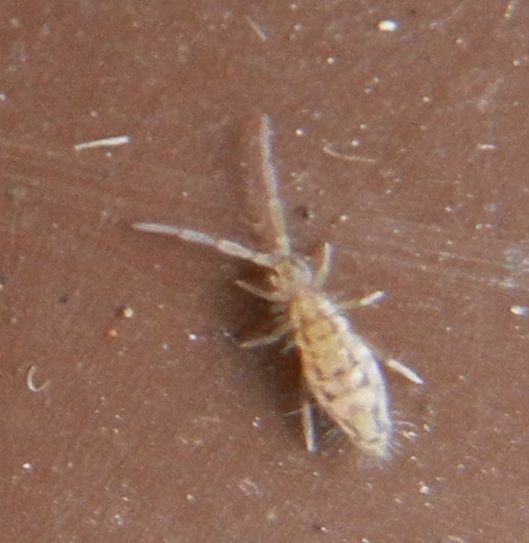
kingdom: Animalia
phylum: Arthropoda
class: Collembola
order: Entomobryomorpha
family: Entomobryidae
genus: Entomobrya
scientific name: Entomobrya intermedia
